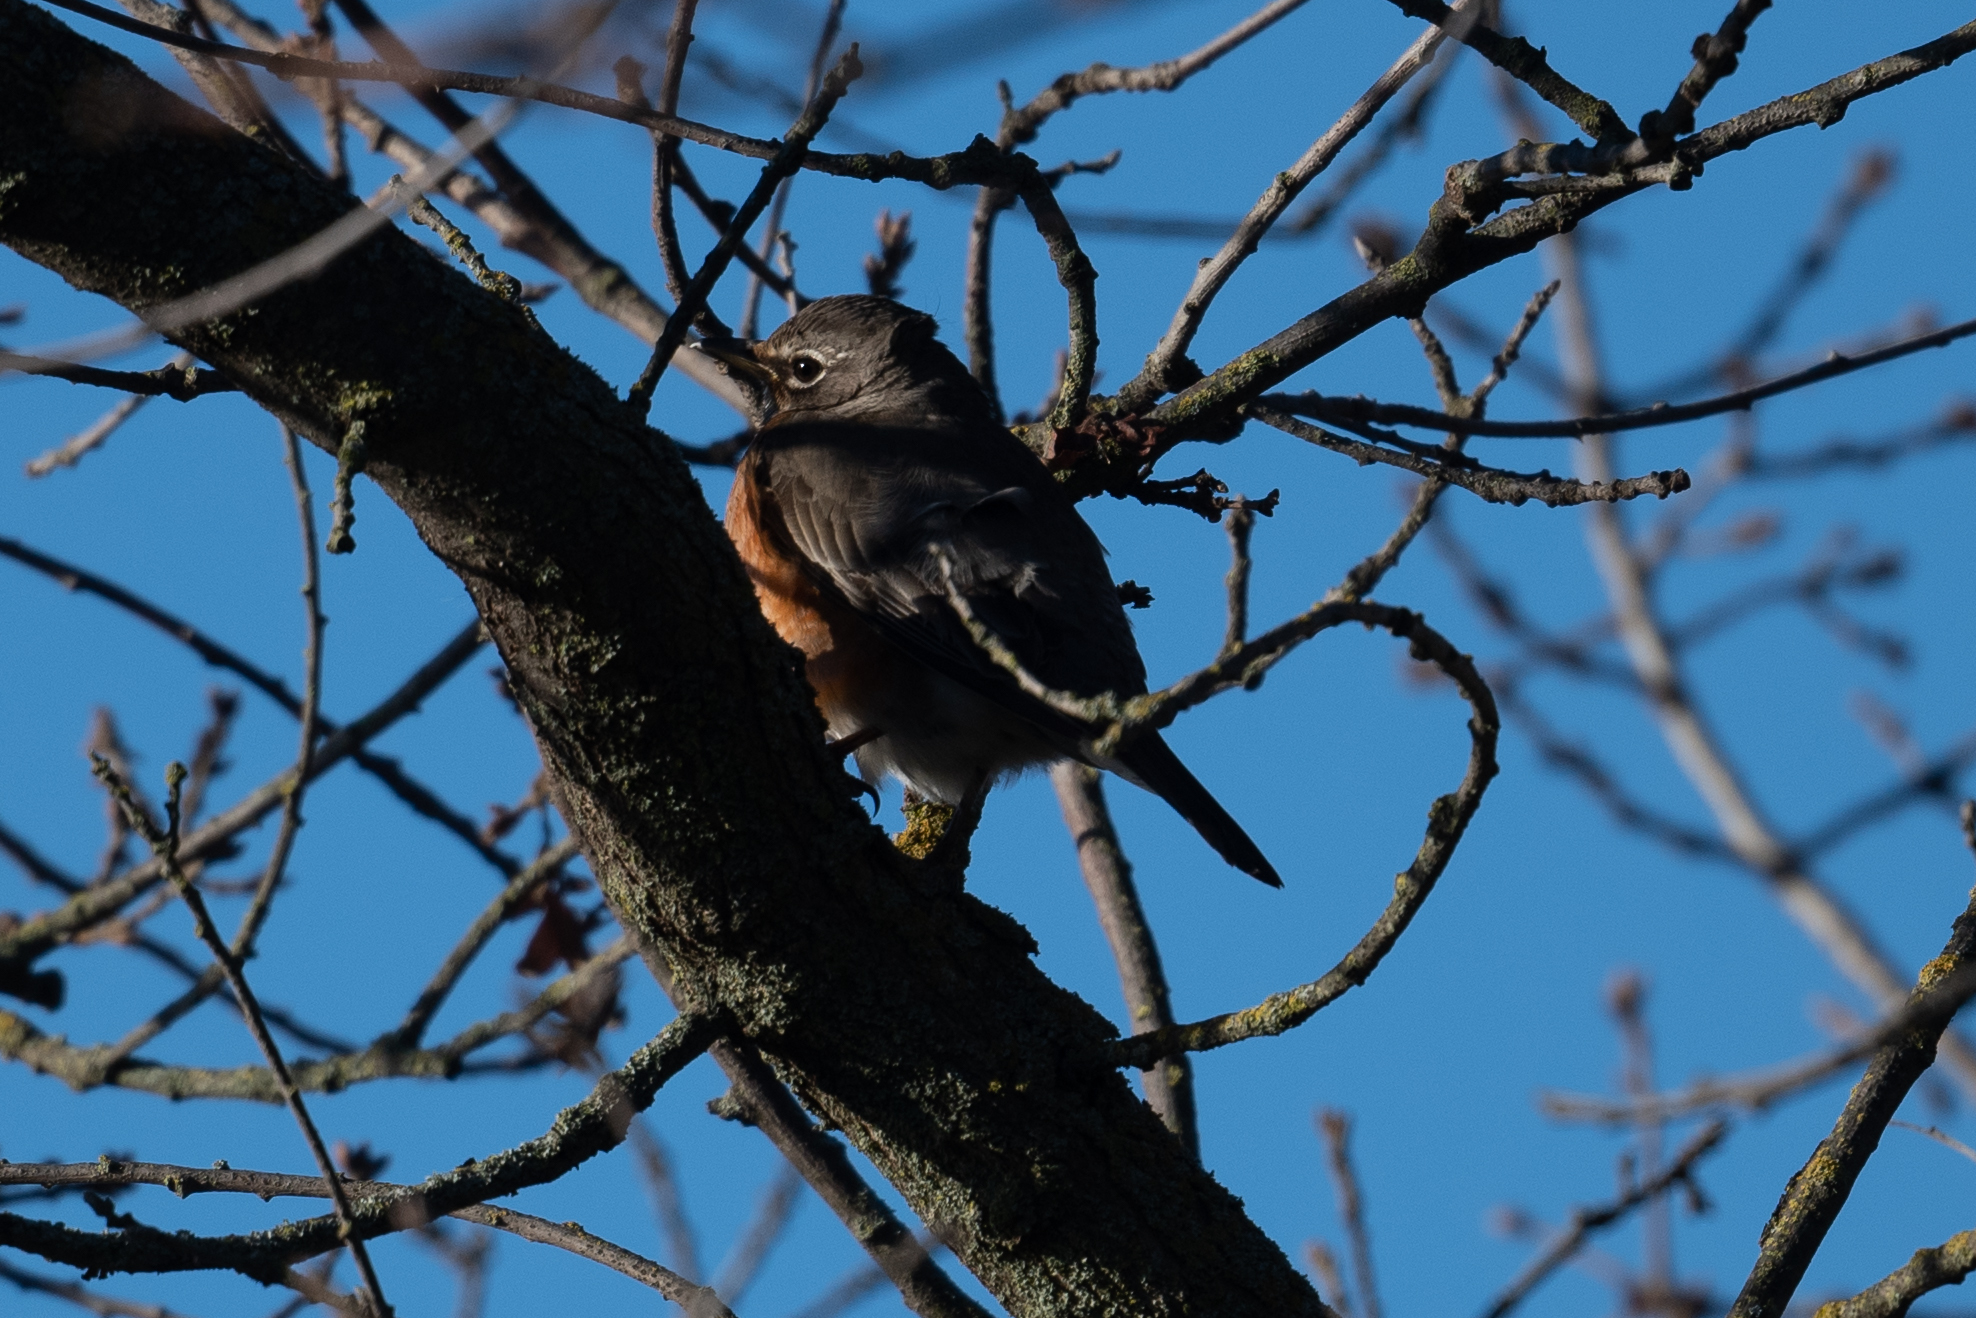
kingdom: Animalia
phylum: Chordata
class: Aves
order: Passeriformes
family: Turdidae
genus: Turdus
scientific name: Turdus migratorius
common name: American robin
